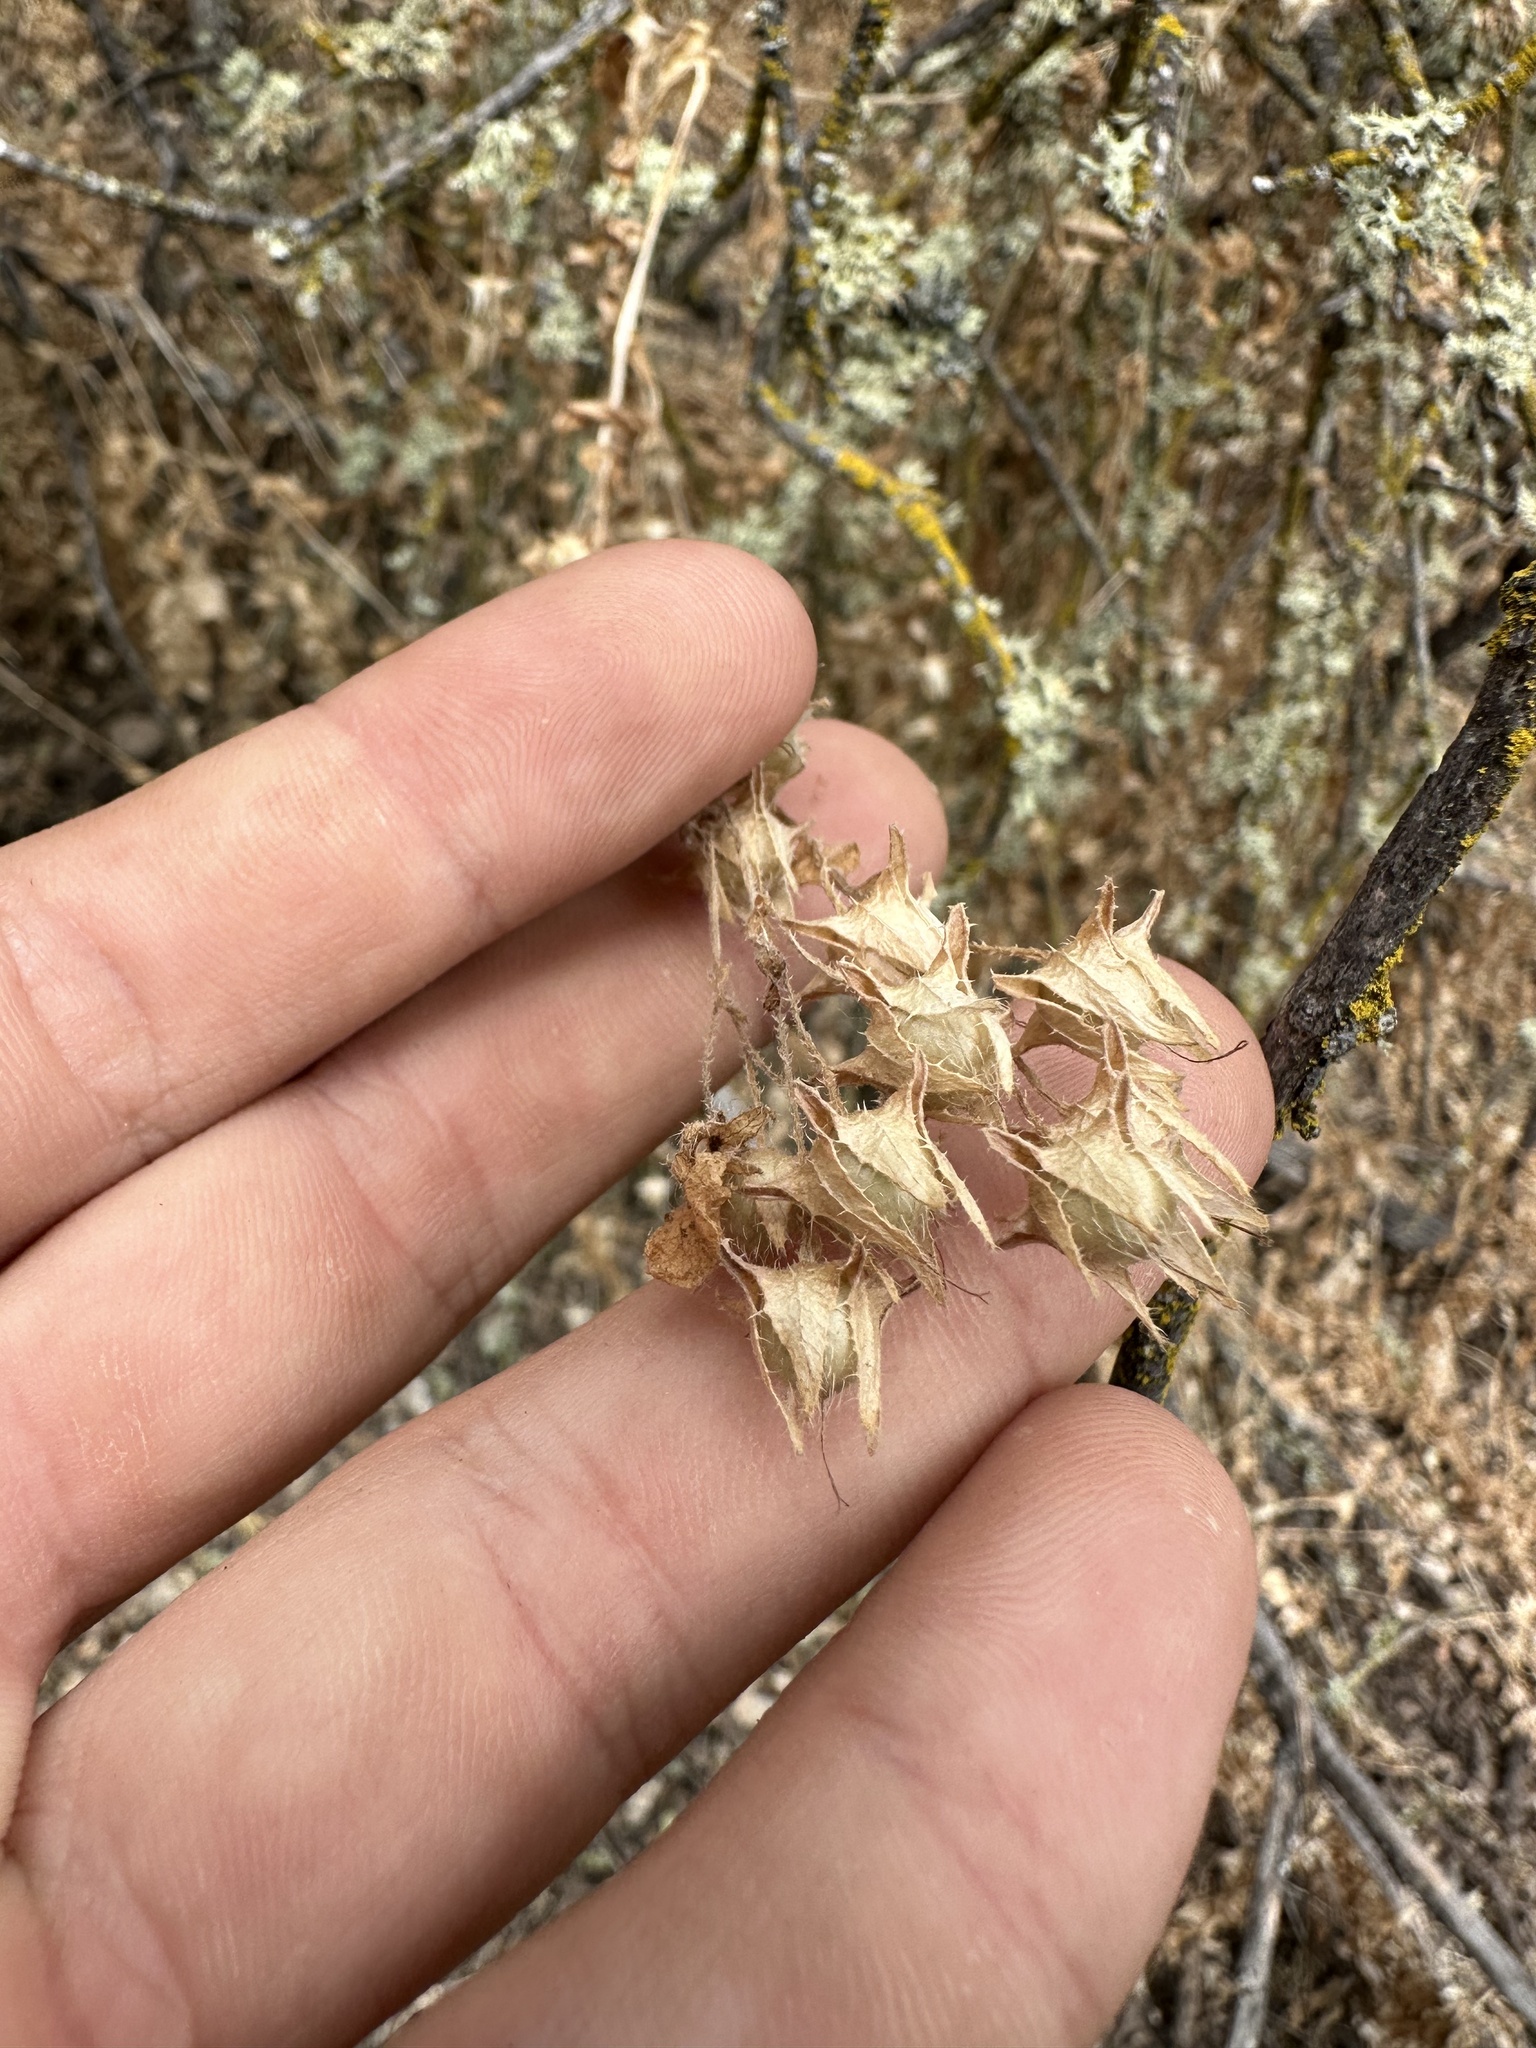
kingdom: Plantae
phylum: Tracheophyta
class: Magnoliopsida
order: Boraginales
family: Hydrophyllaceae
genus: Pholistoma
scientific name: Pholistoma auritum
